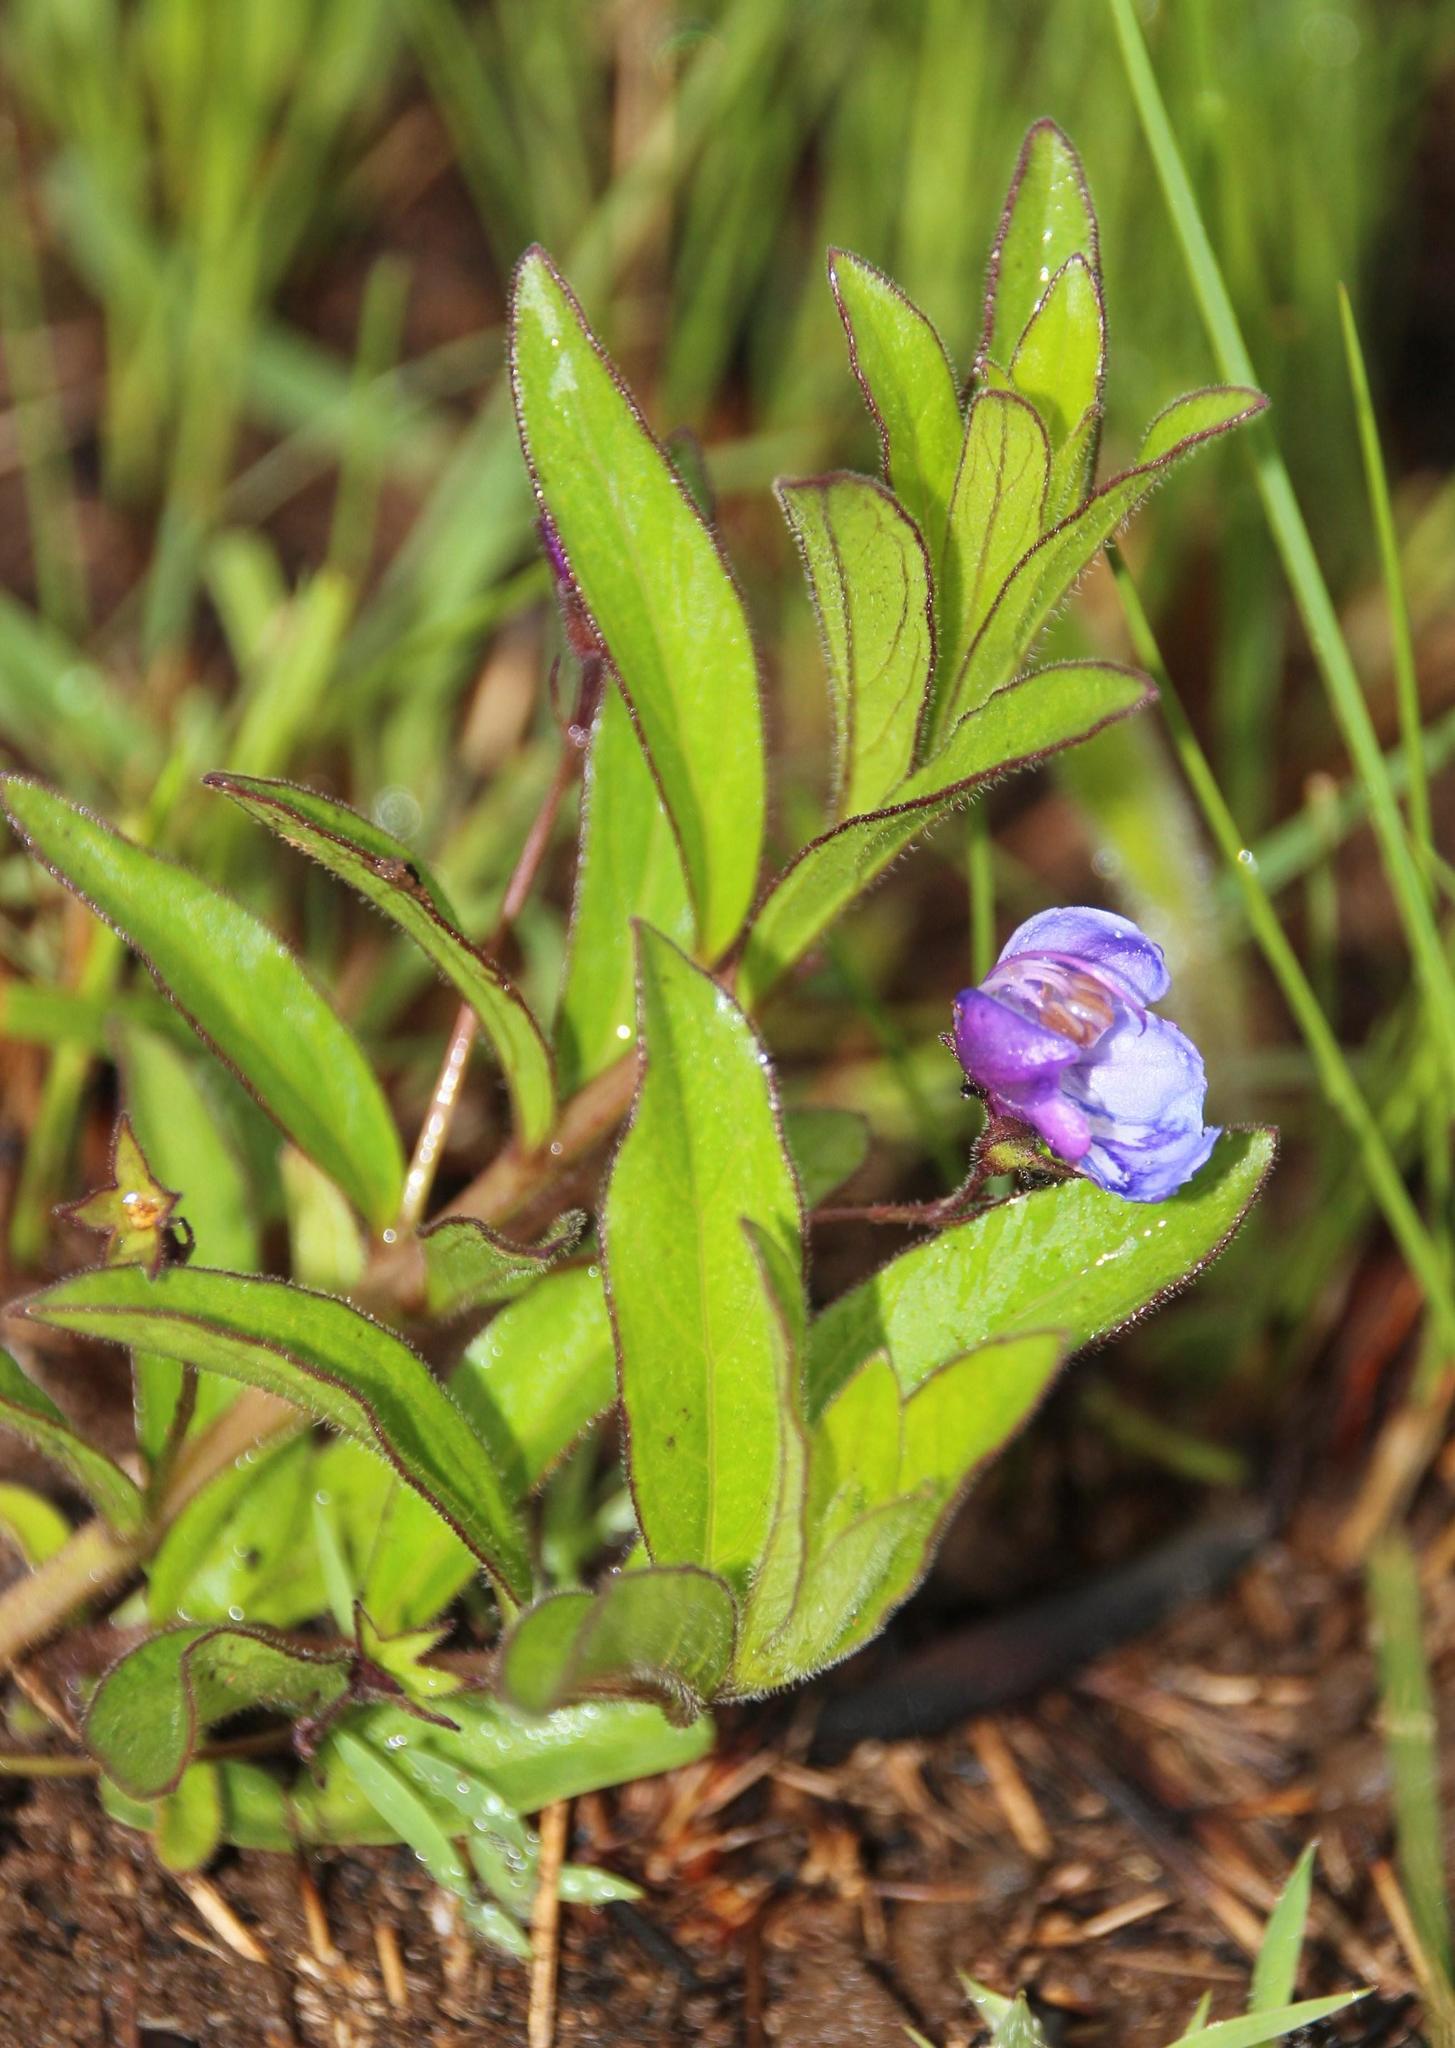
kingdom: Plantae
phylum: Tracheophyta
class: Magnoliopsida
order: Lamiales
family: Lamiaceae
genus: Rotheca
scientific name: Rotheca hirsuta
